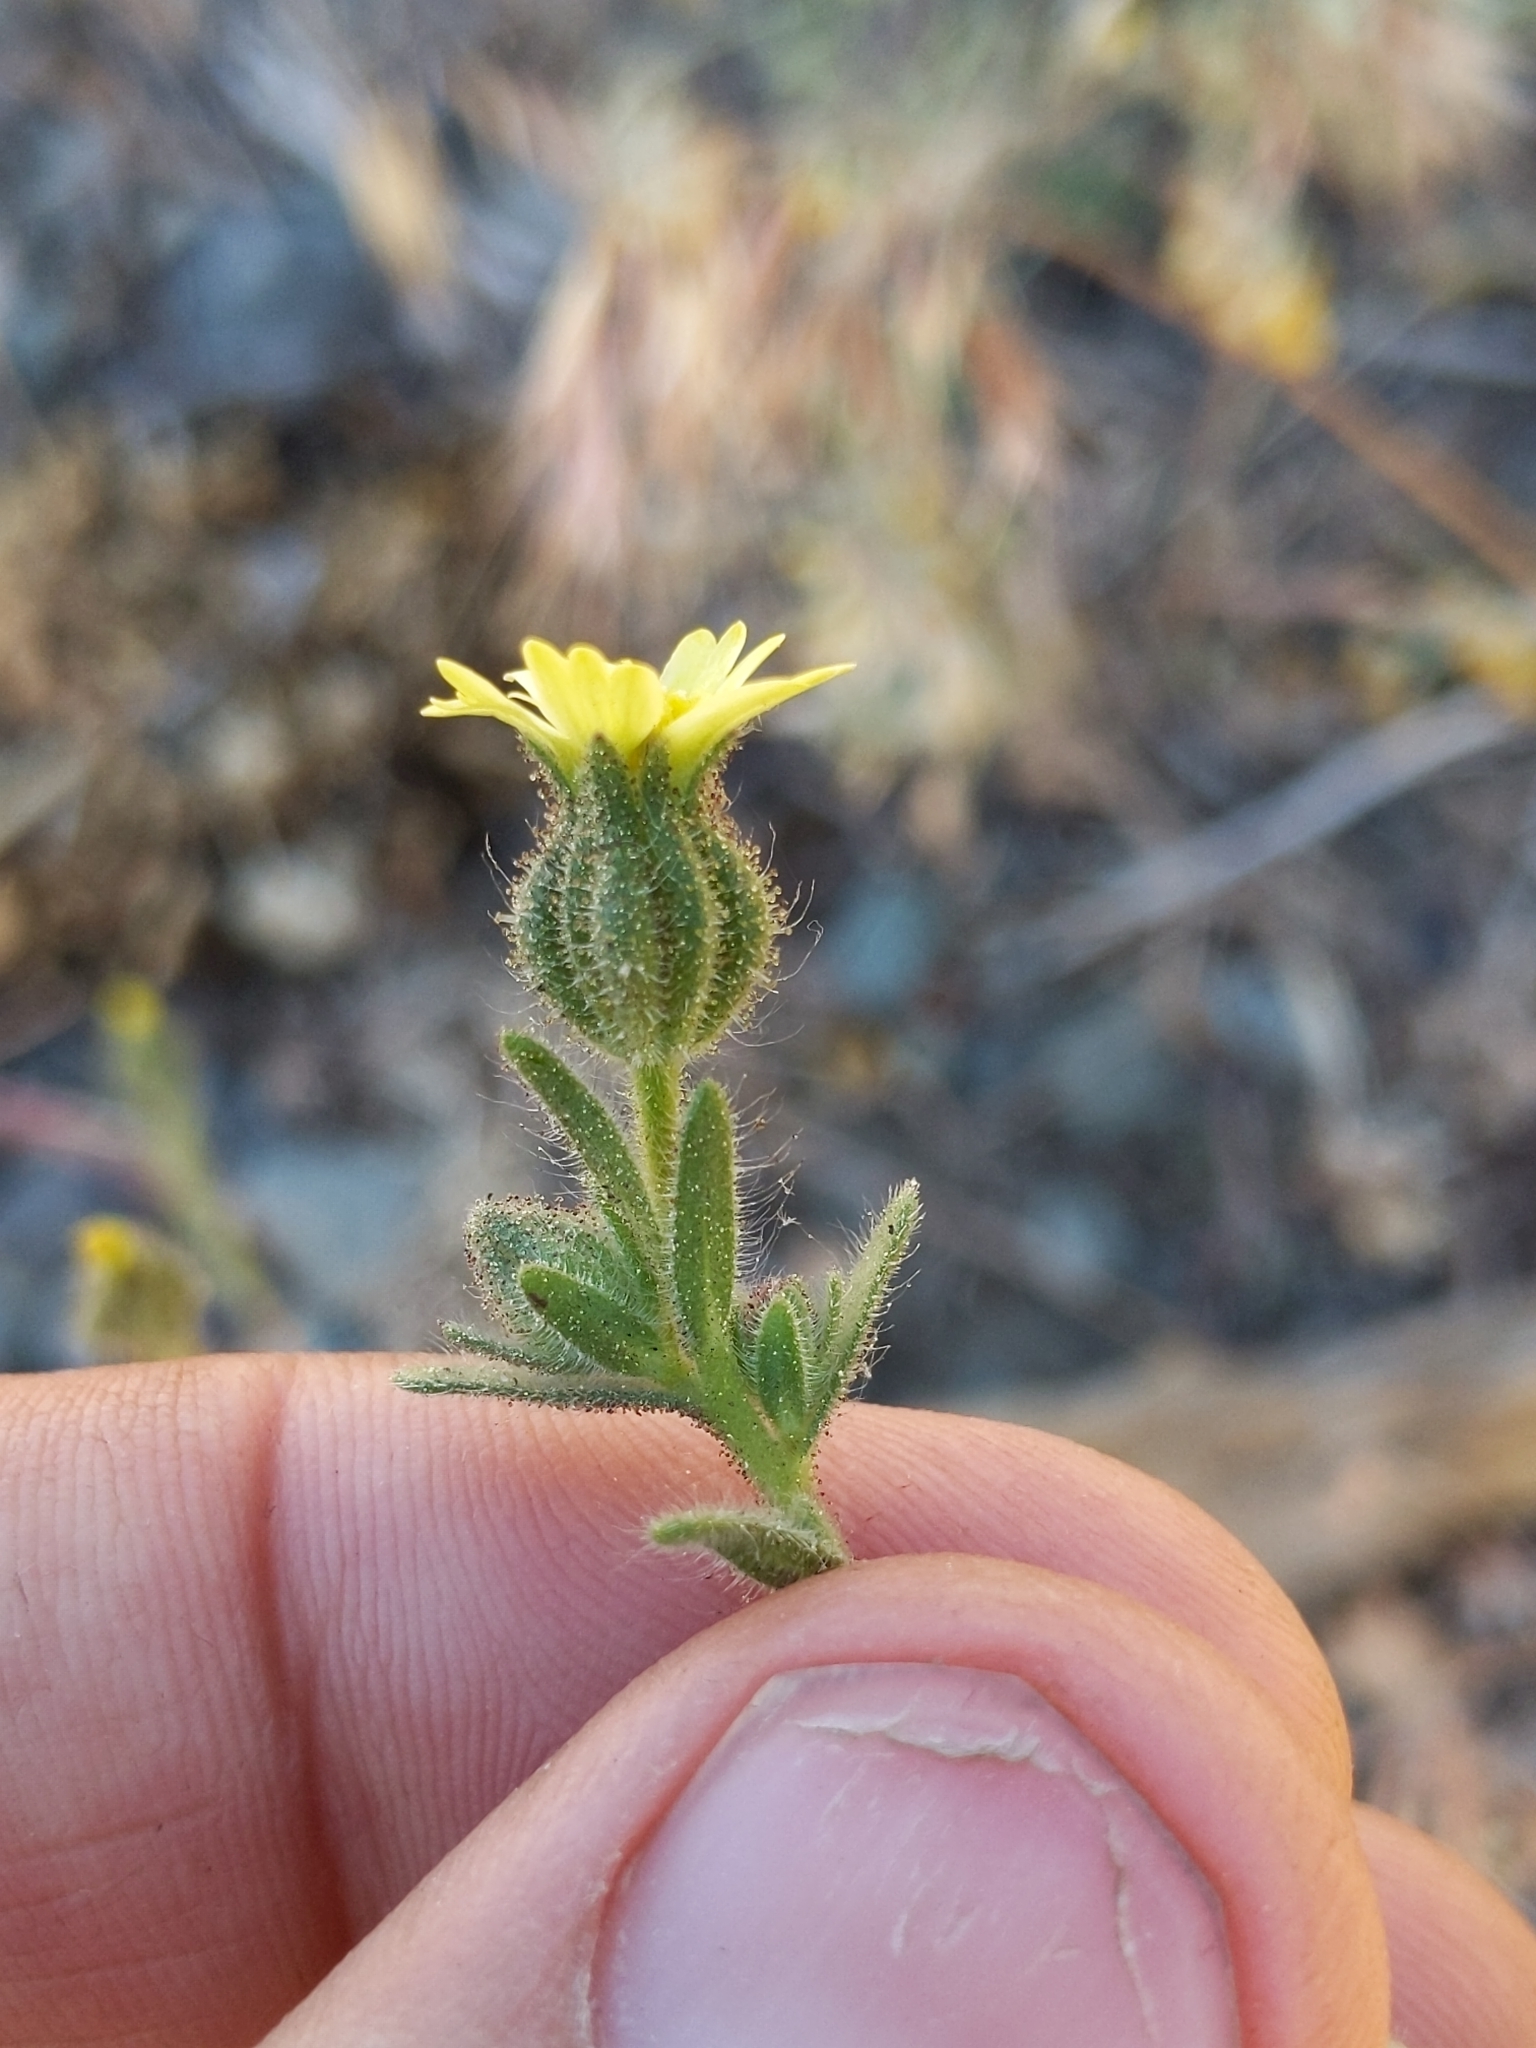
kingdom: Plantae
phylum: Tracheophyta
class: Magnoliopsida
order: Asterales
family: Asteraceae
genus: Madia
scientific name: Madia gracilis
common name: Grassy tarweed
